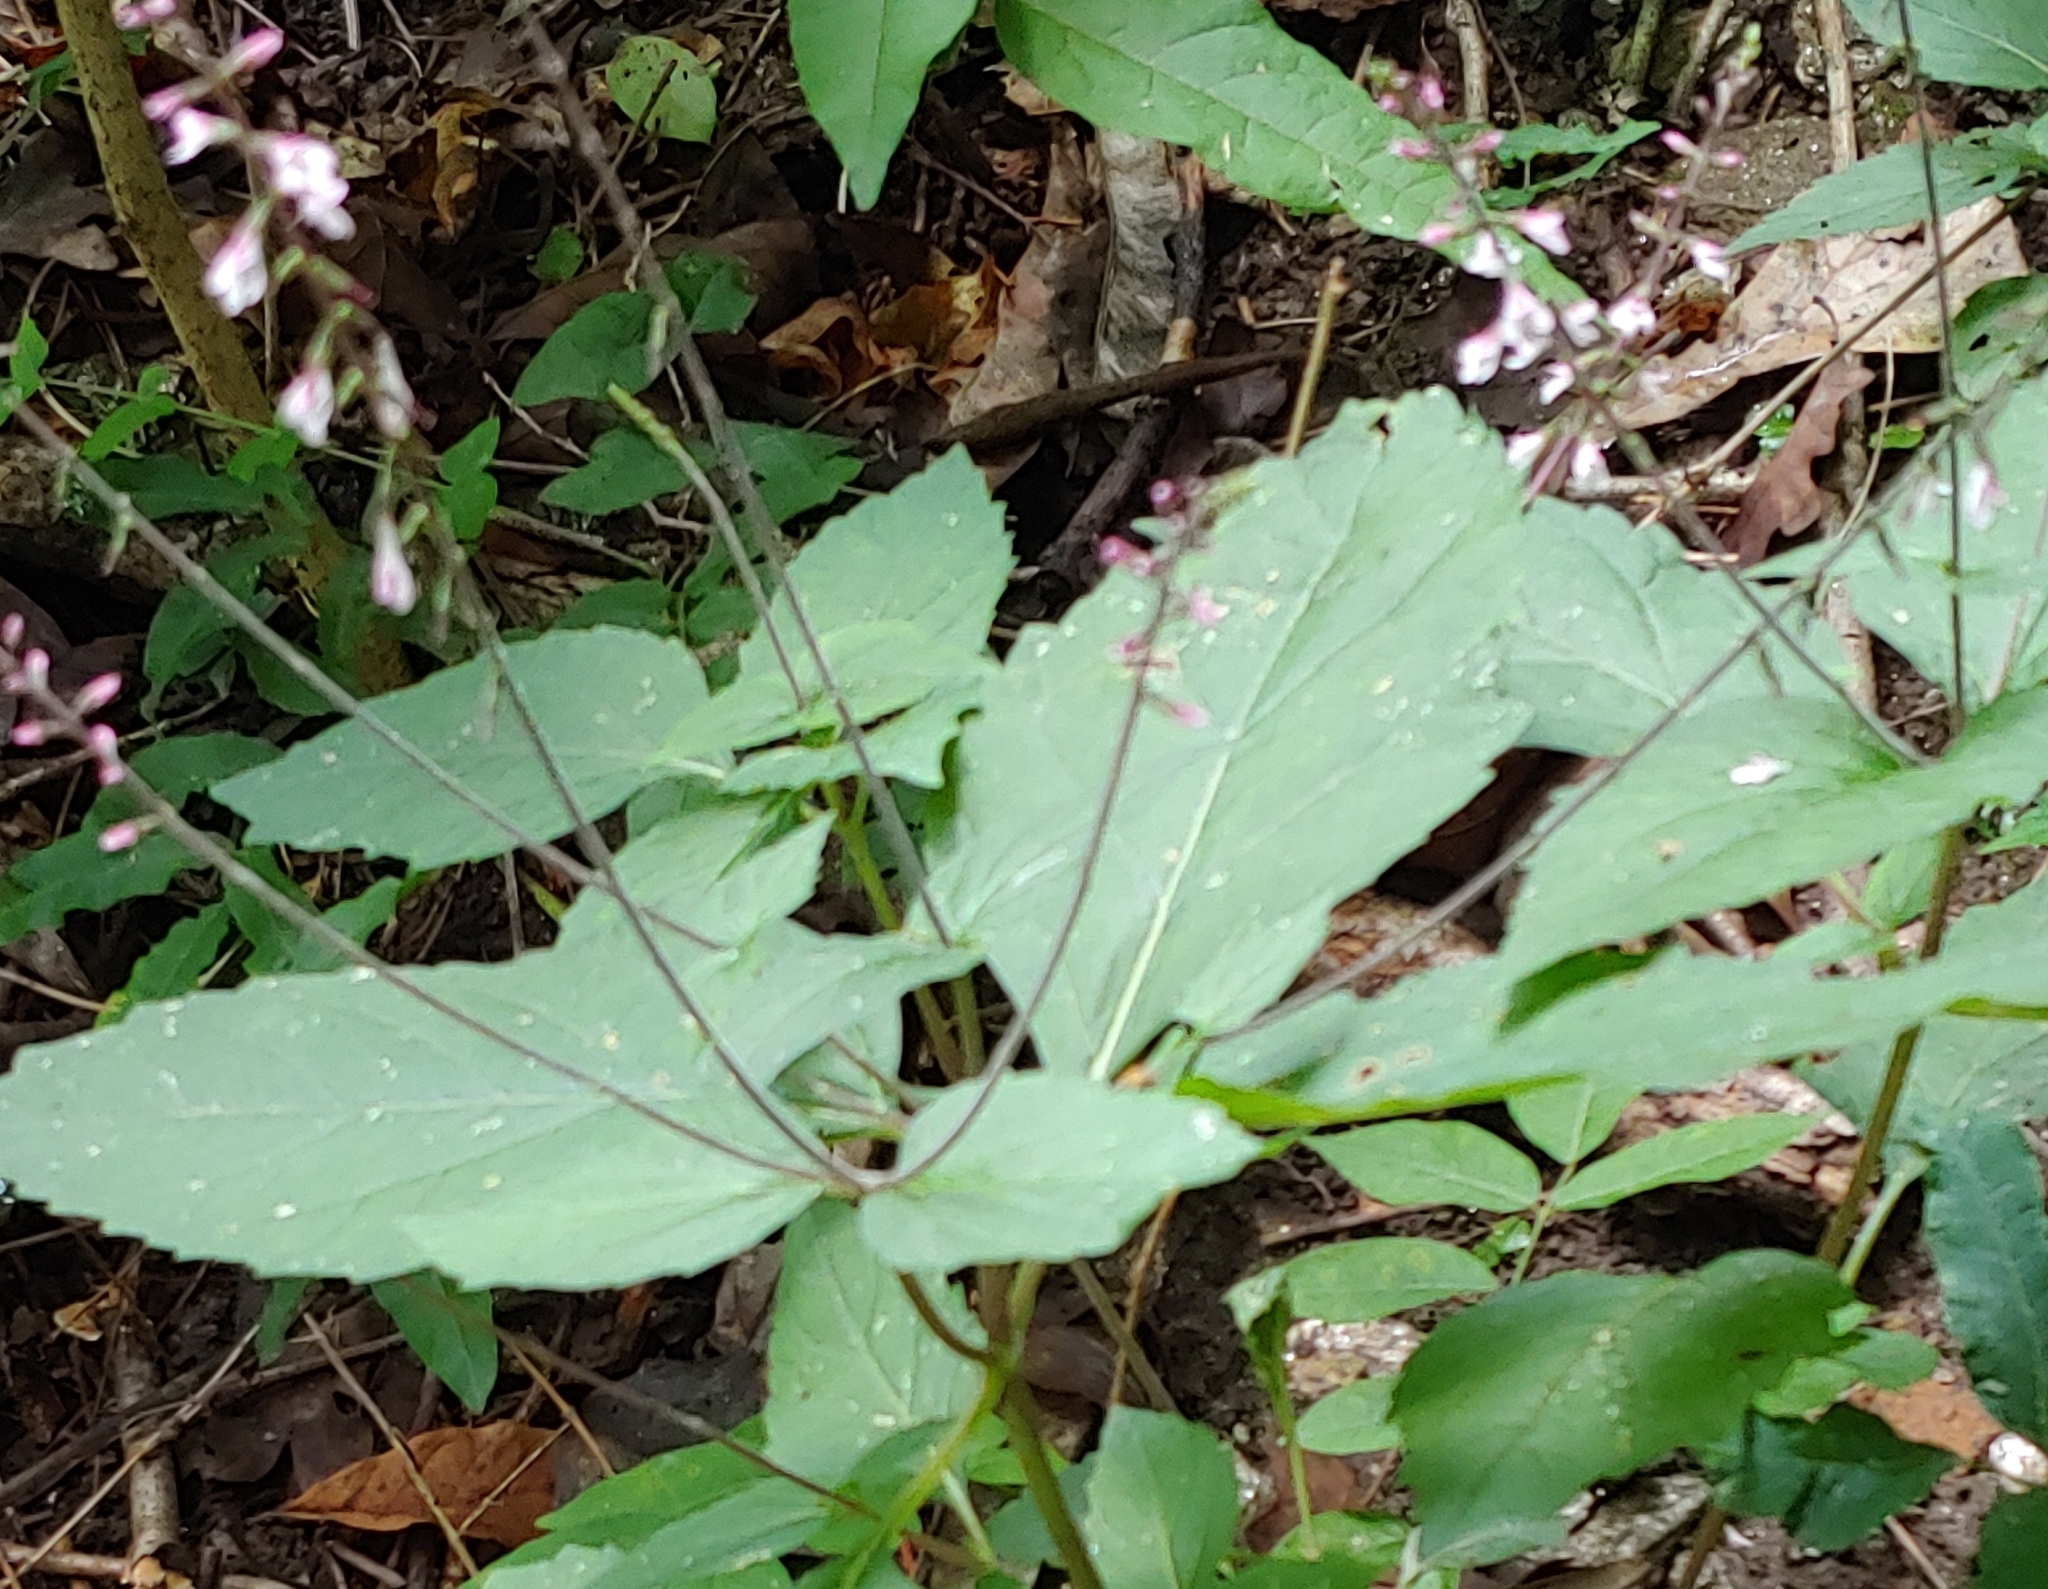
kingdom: Plantae
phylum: Tracheophyta
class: Magnoliopsida
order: Lamiales
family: Phrymaceae
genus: Phryma
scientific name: Phryma leptostachya
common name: American lopseed
